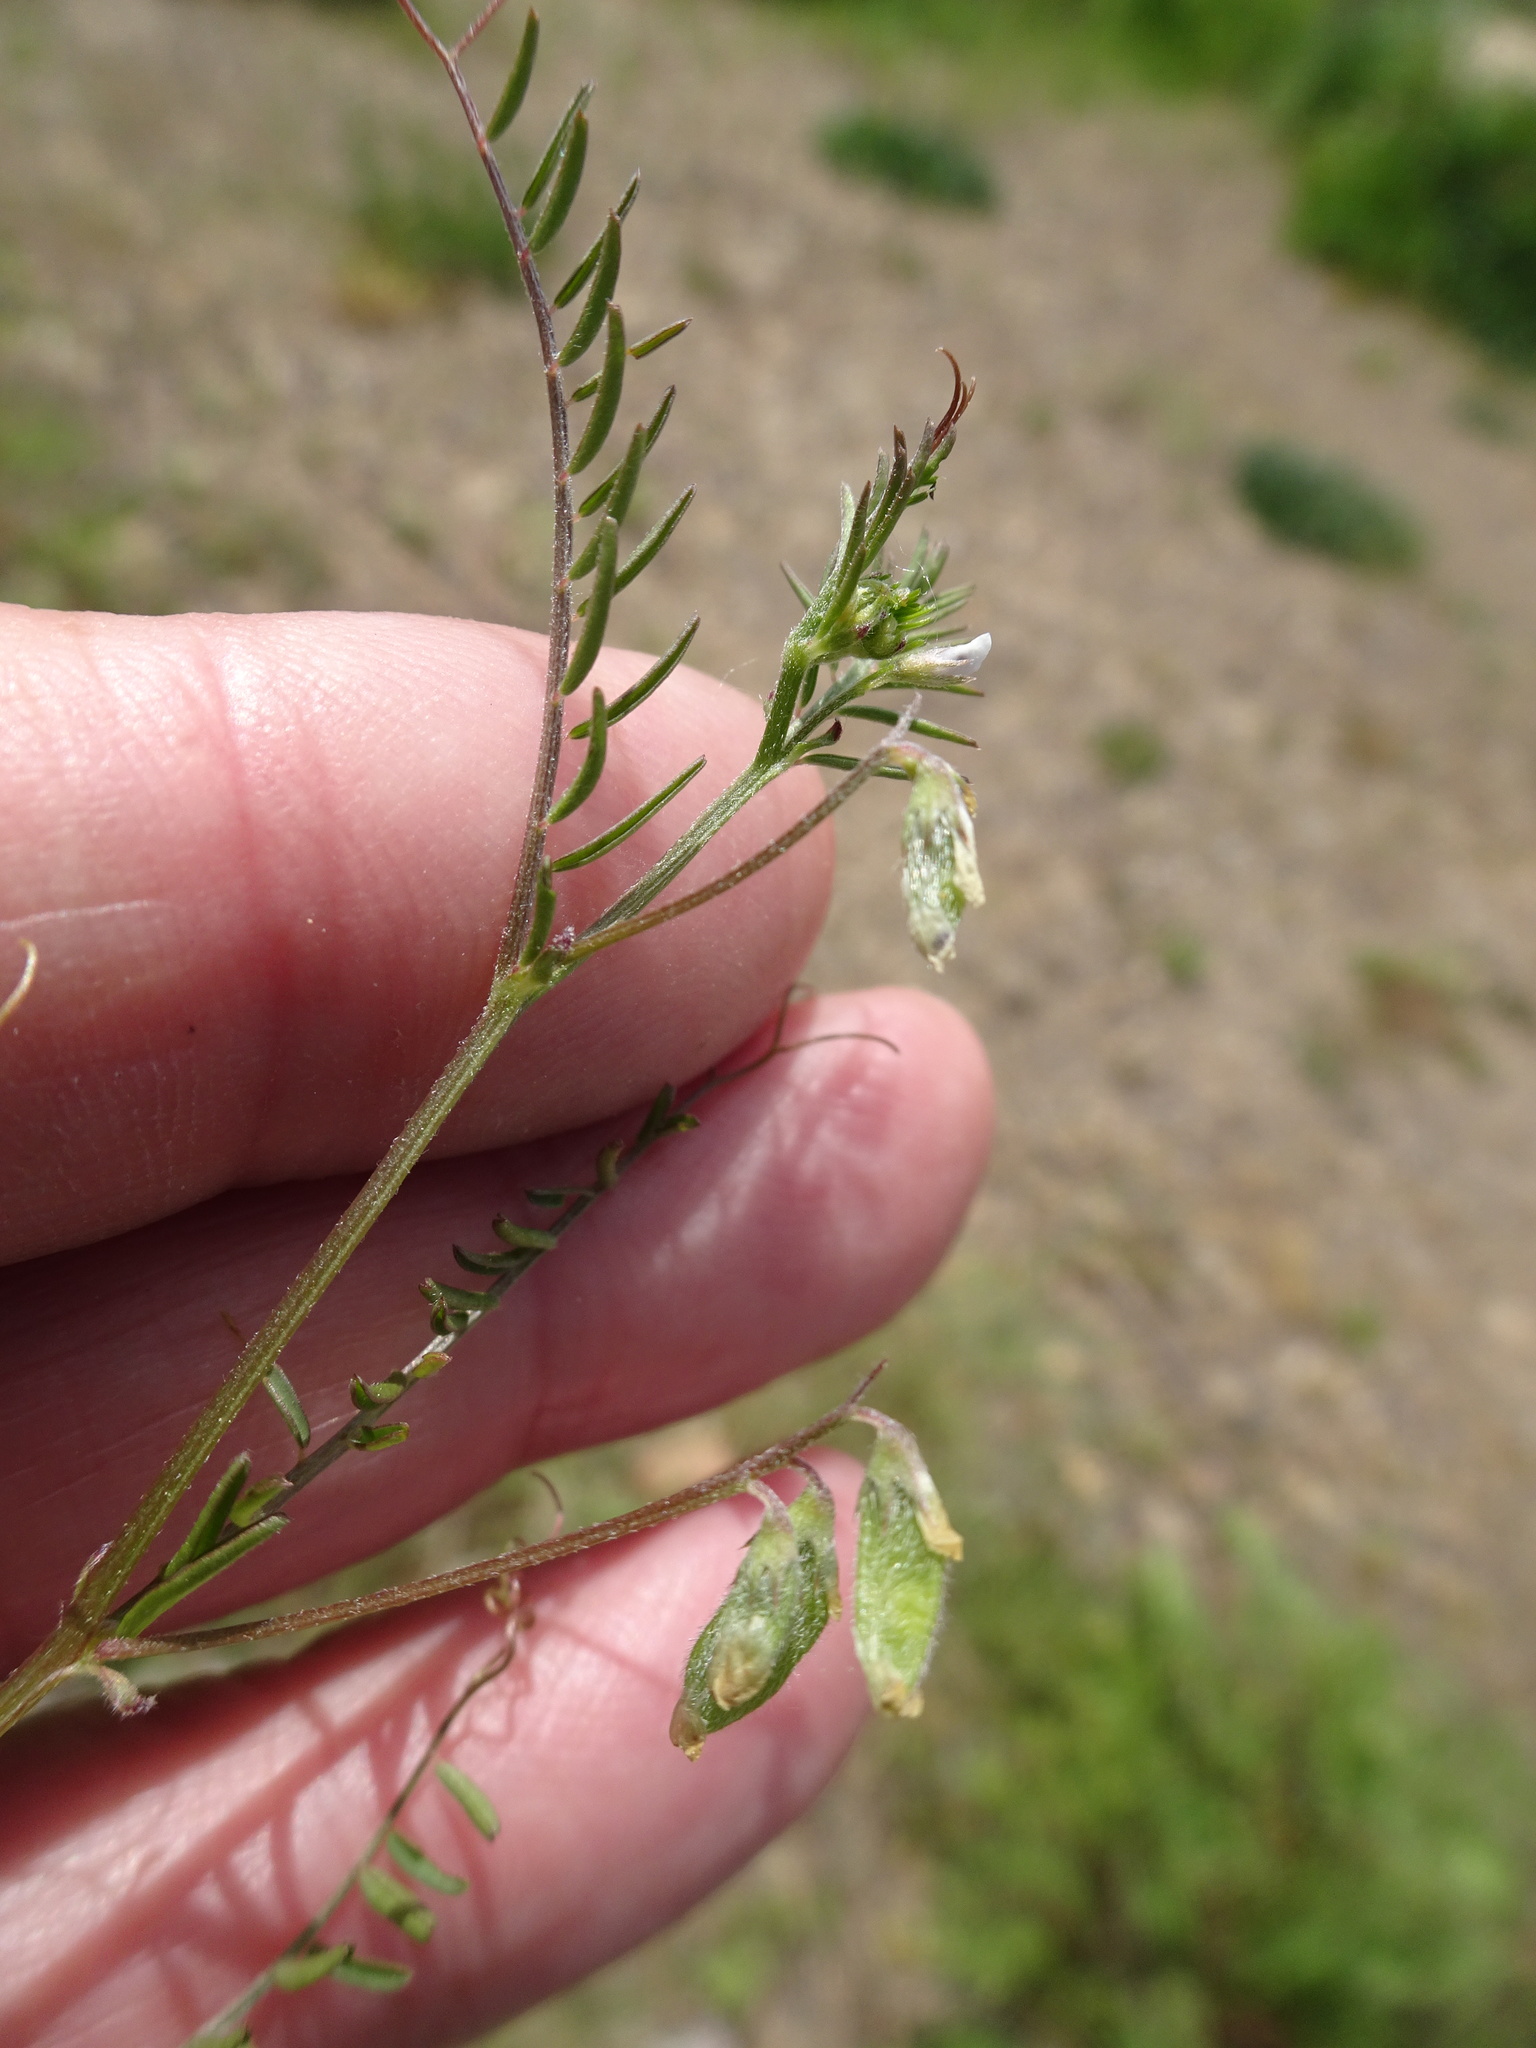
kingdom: Plantae
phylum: Tracheophyta
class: Magnoliopsida
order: Fabales
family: Fabaceae
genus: Vicia
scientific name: Vicia hirsuta
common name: Tiny vetch
